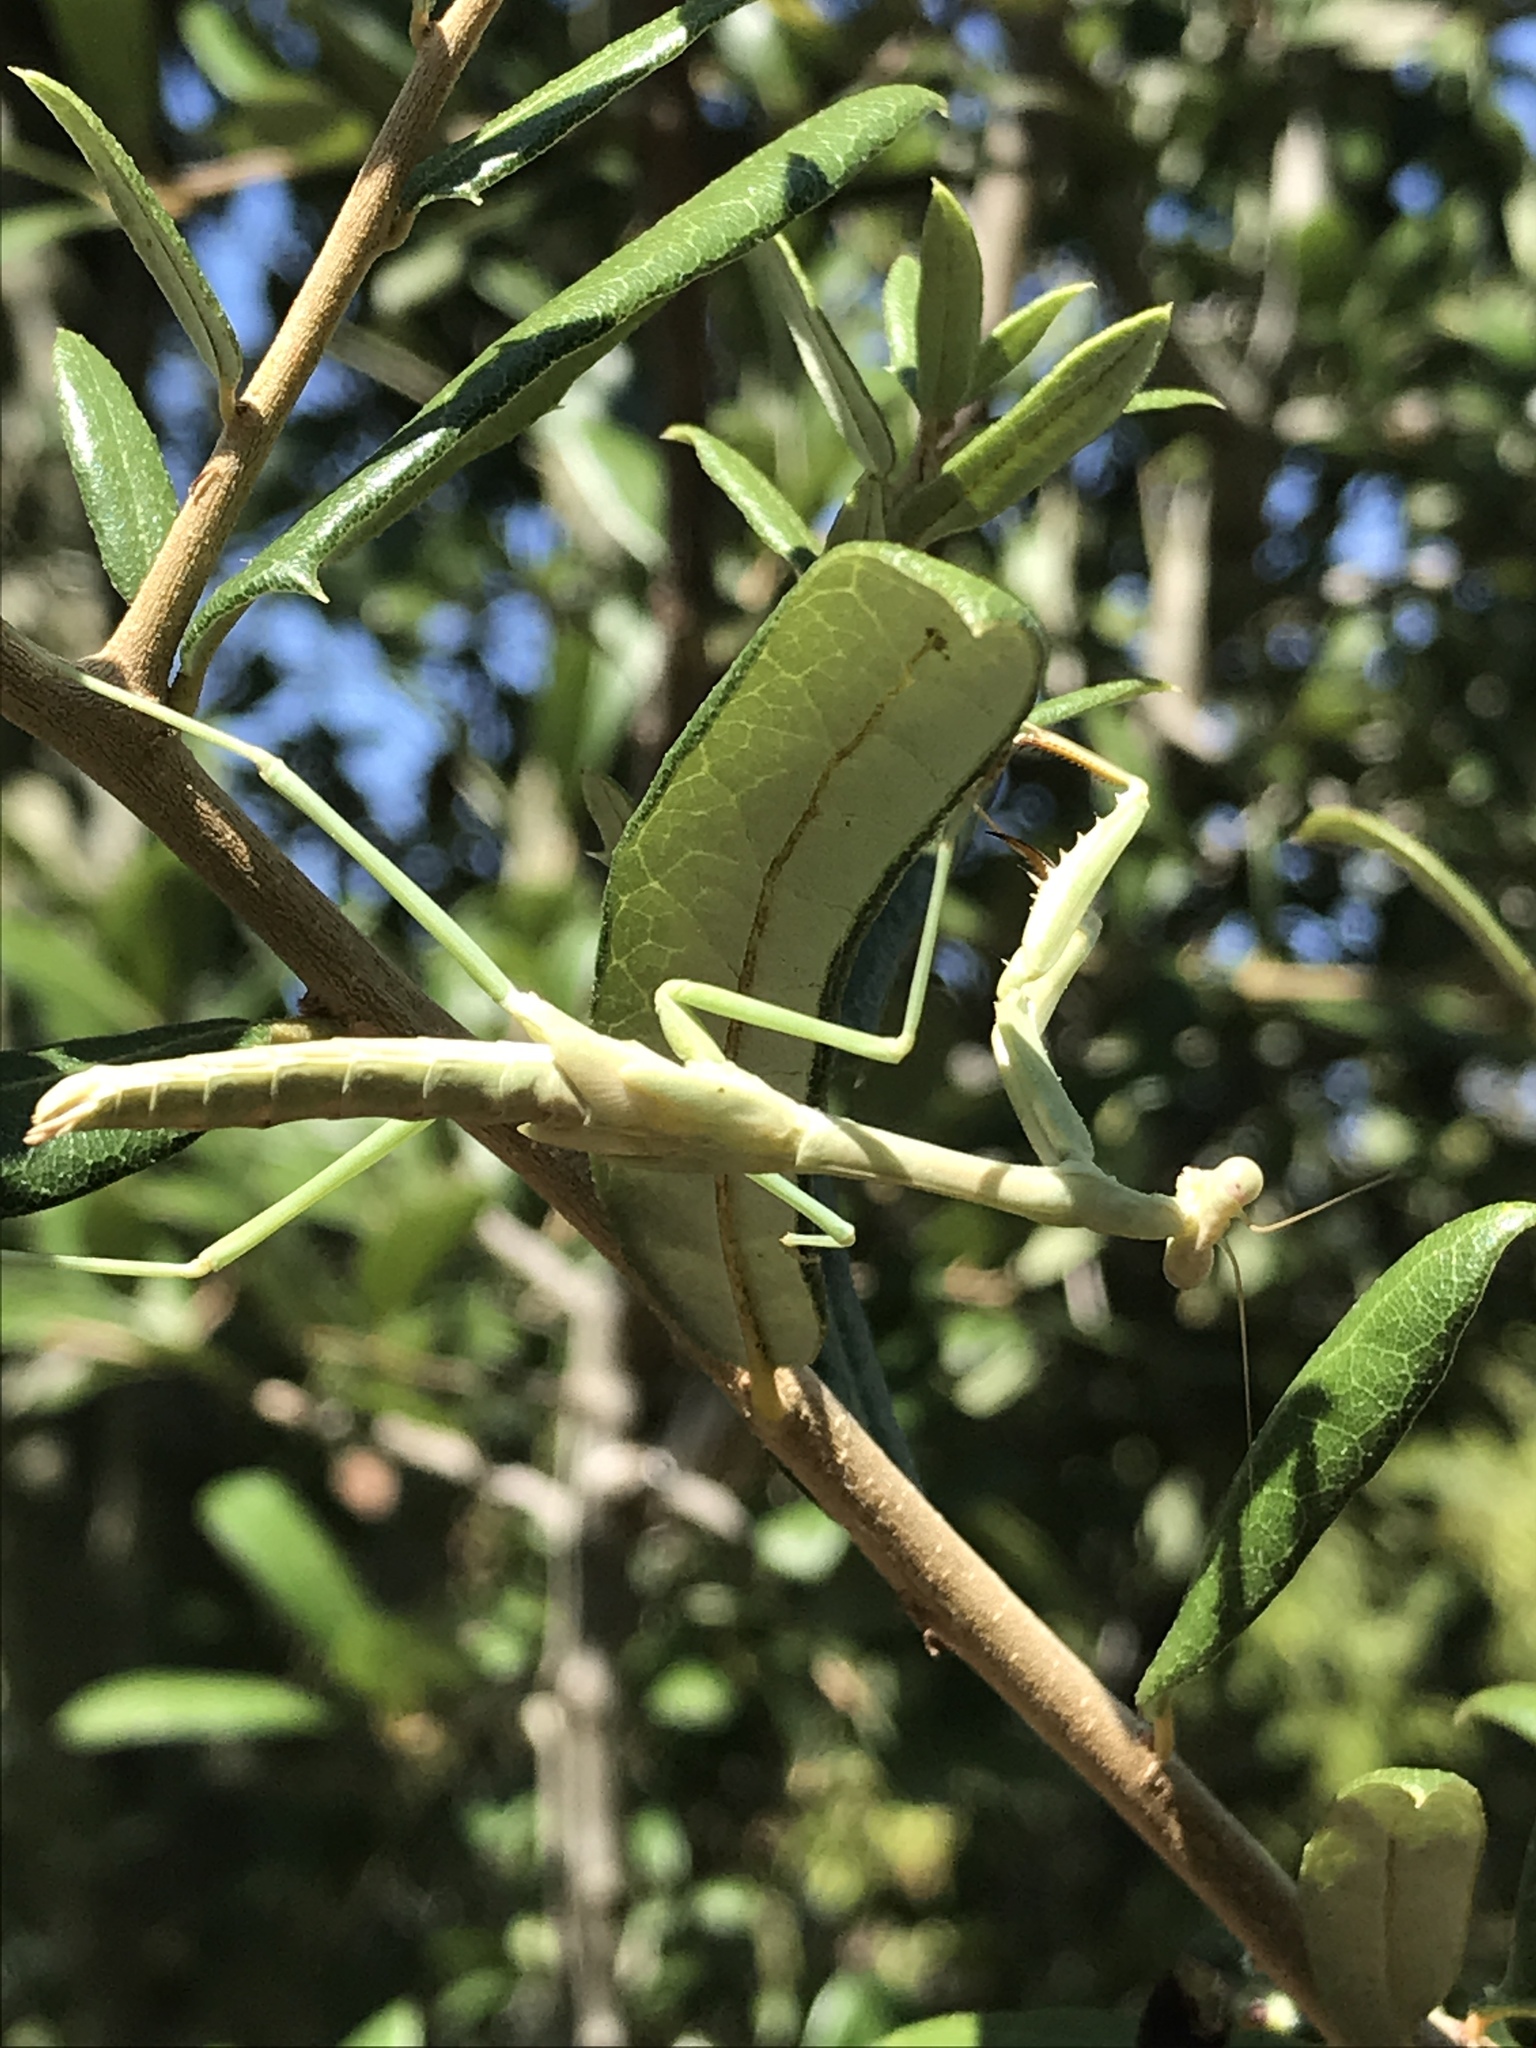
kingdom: Animalia
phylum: Arthropoda
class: Insecta
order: Mantodea
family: Mantidae
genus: Stagmomantis
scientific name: Stagmomantis carolina
